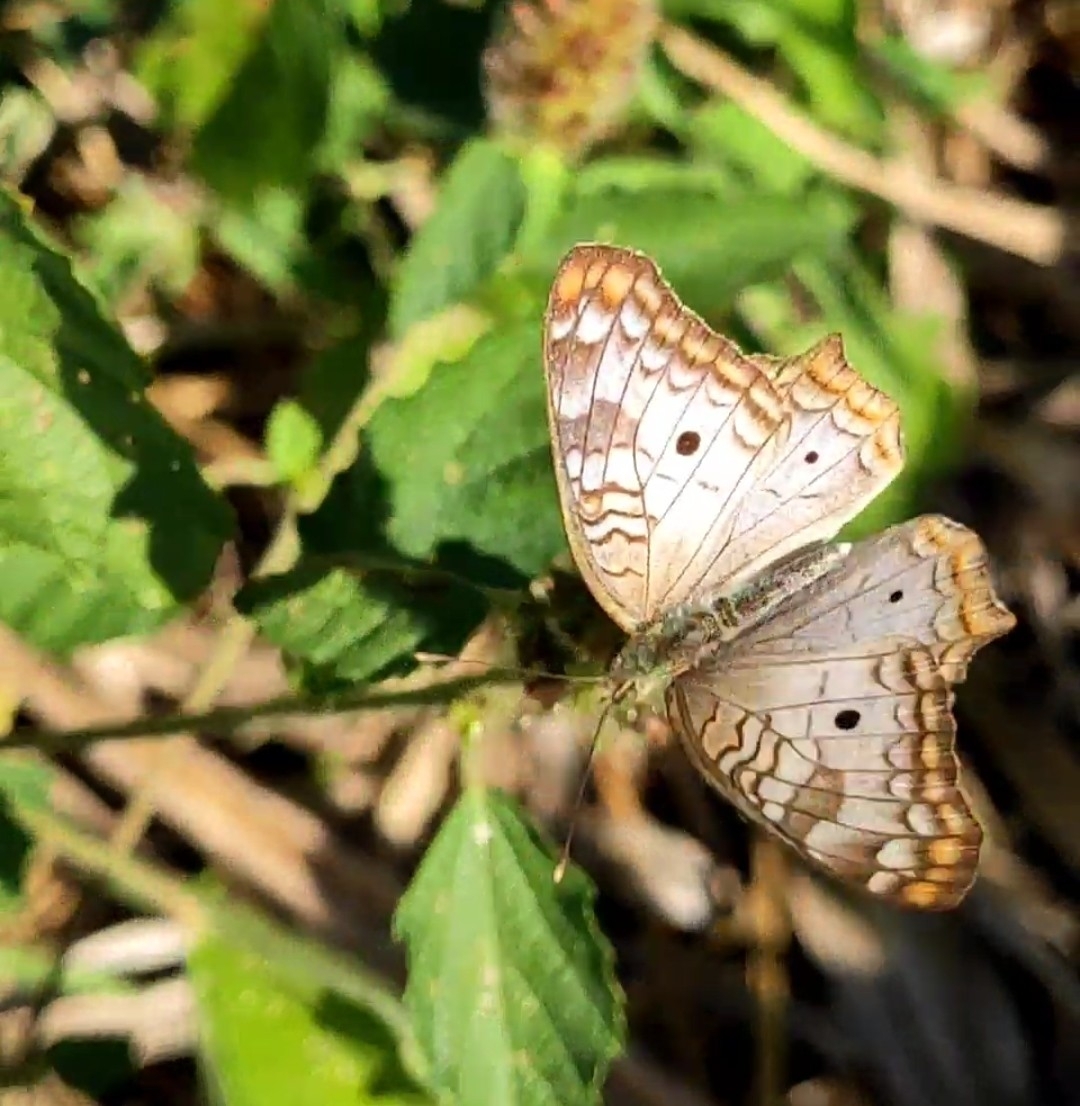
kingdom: Animalia
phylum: Arthropoda
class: Insecta
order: Lepidoptera
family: Nymphalidae
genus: Anartia
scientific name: Anartia jatrophae
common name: White peacock
